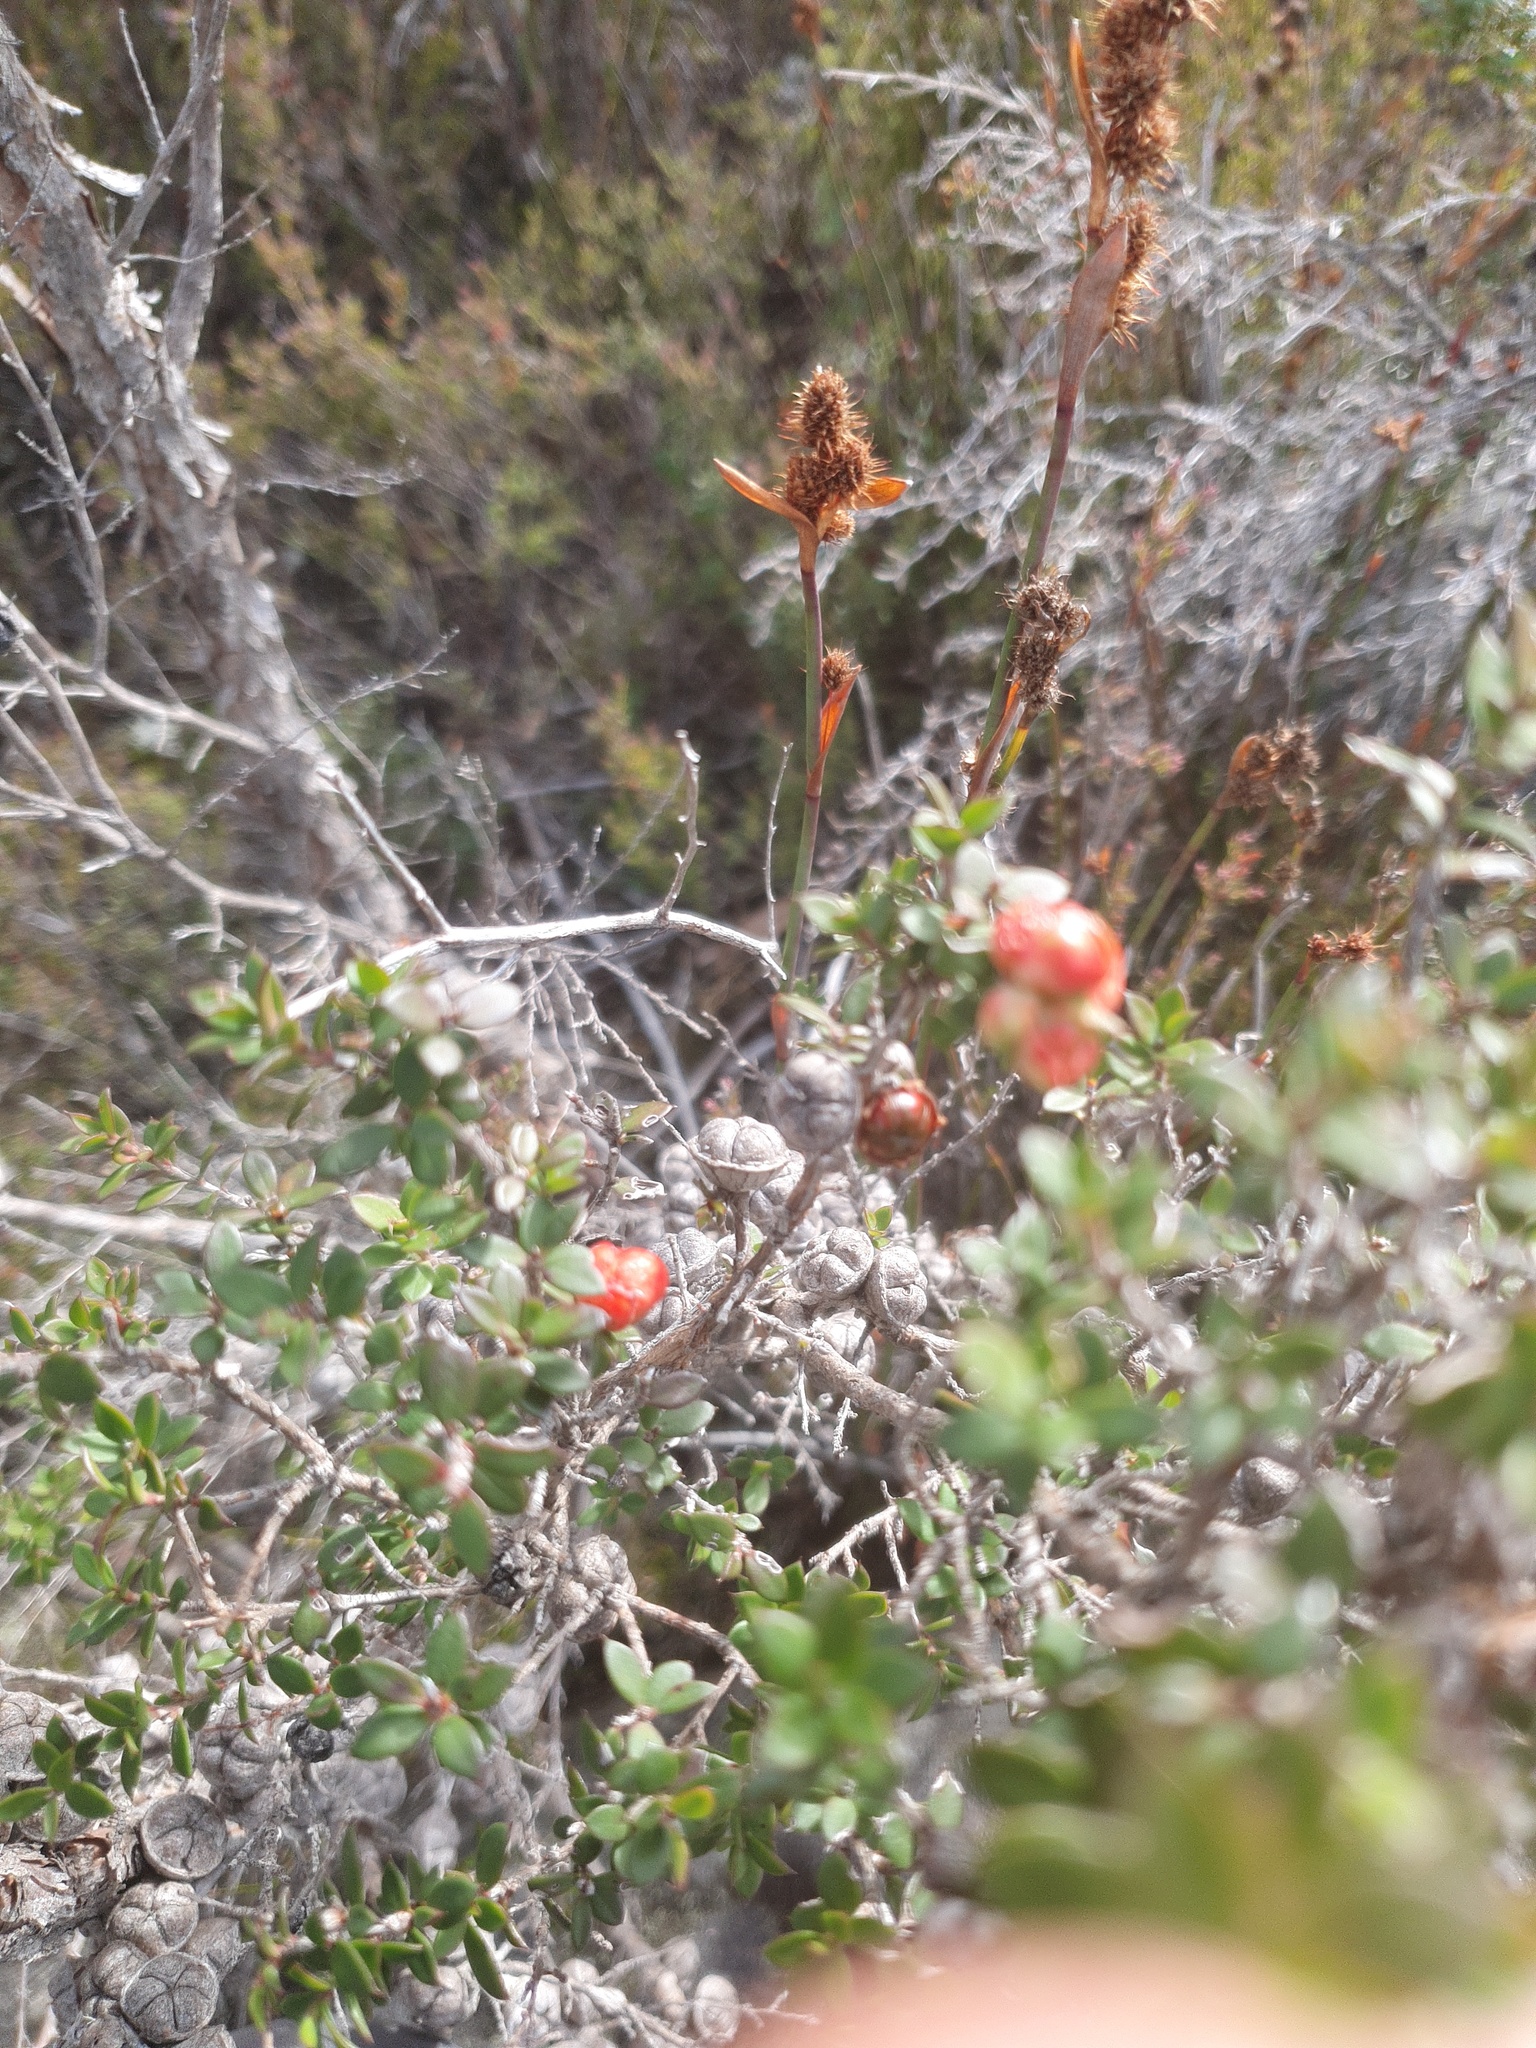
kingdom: Plantae
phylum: Tracheophyta
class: Magnoliopsida
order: Myrtales
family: Myrtaceae
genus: Leptospermum
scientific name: Leptospermum scoparium
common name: Broom tea-tree
